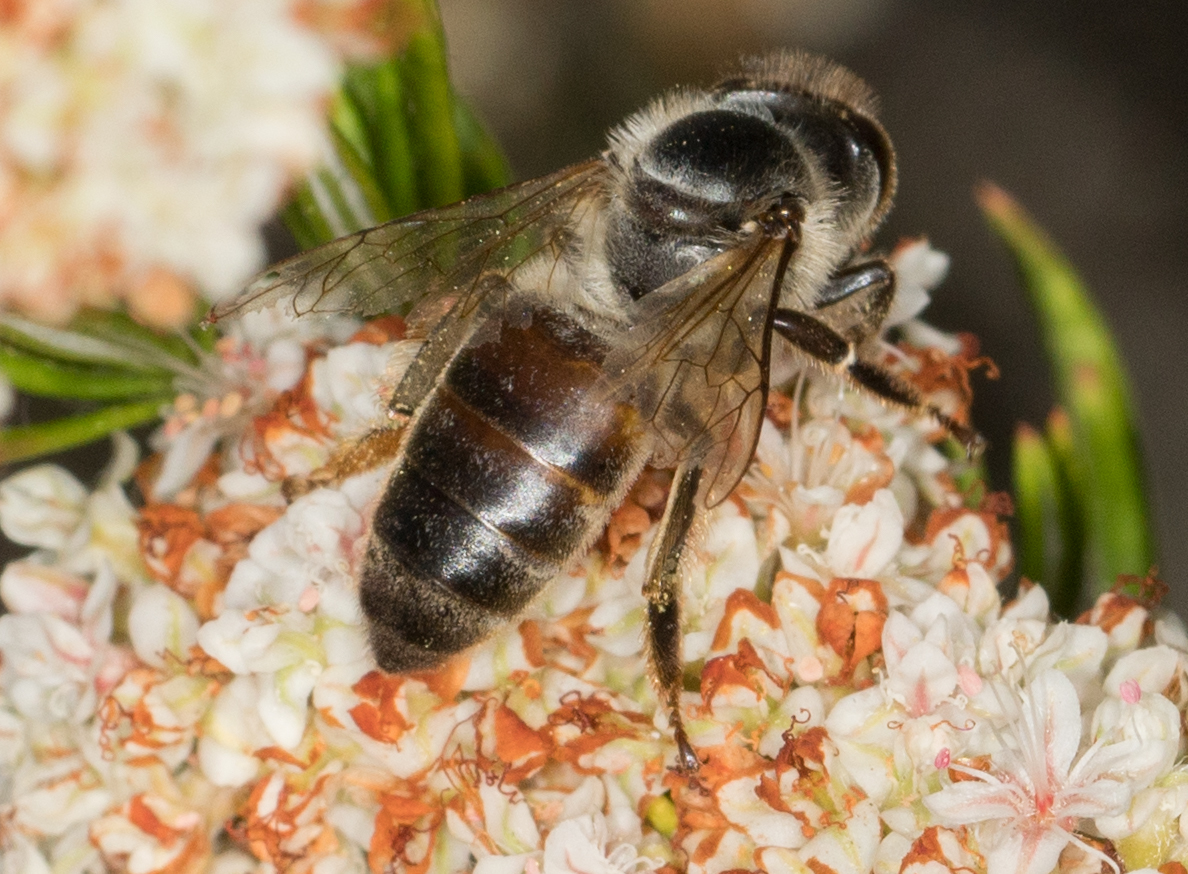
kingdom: Animalia
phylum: Arthropoda
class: Insecta
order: Hymenoptera
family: Apidae
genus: Apis
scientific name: Apis mellifera
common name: Honey bee
